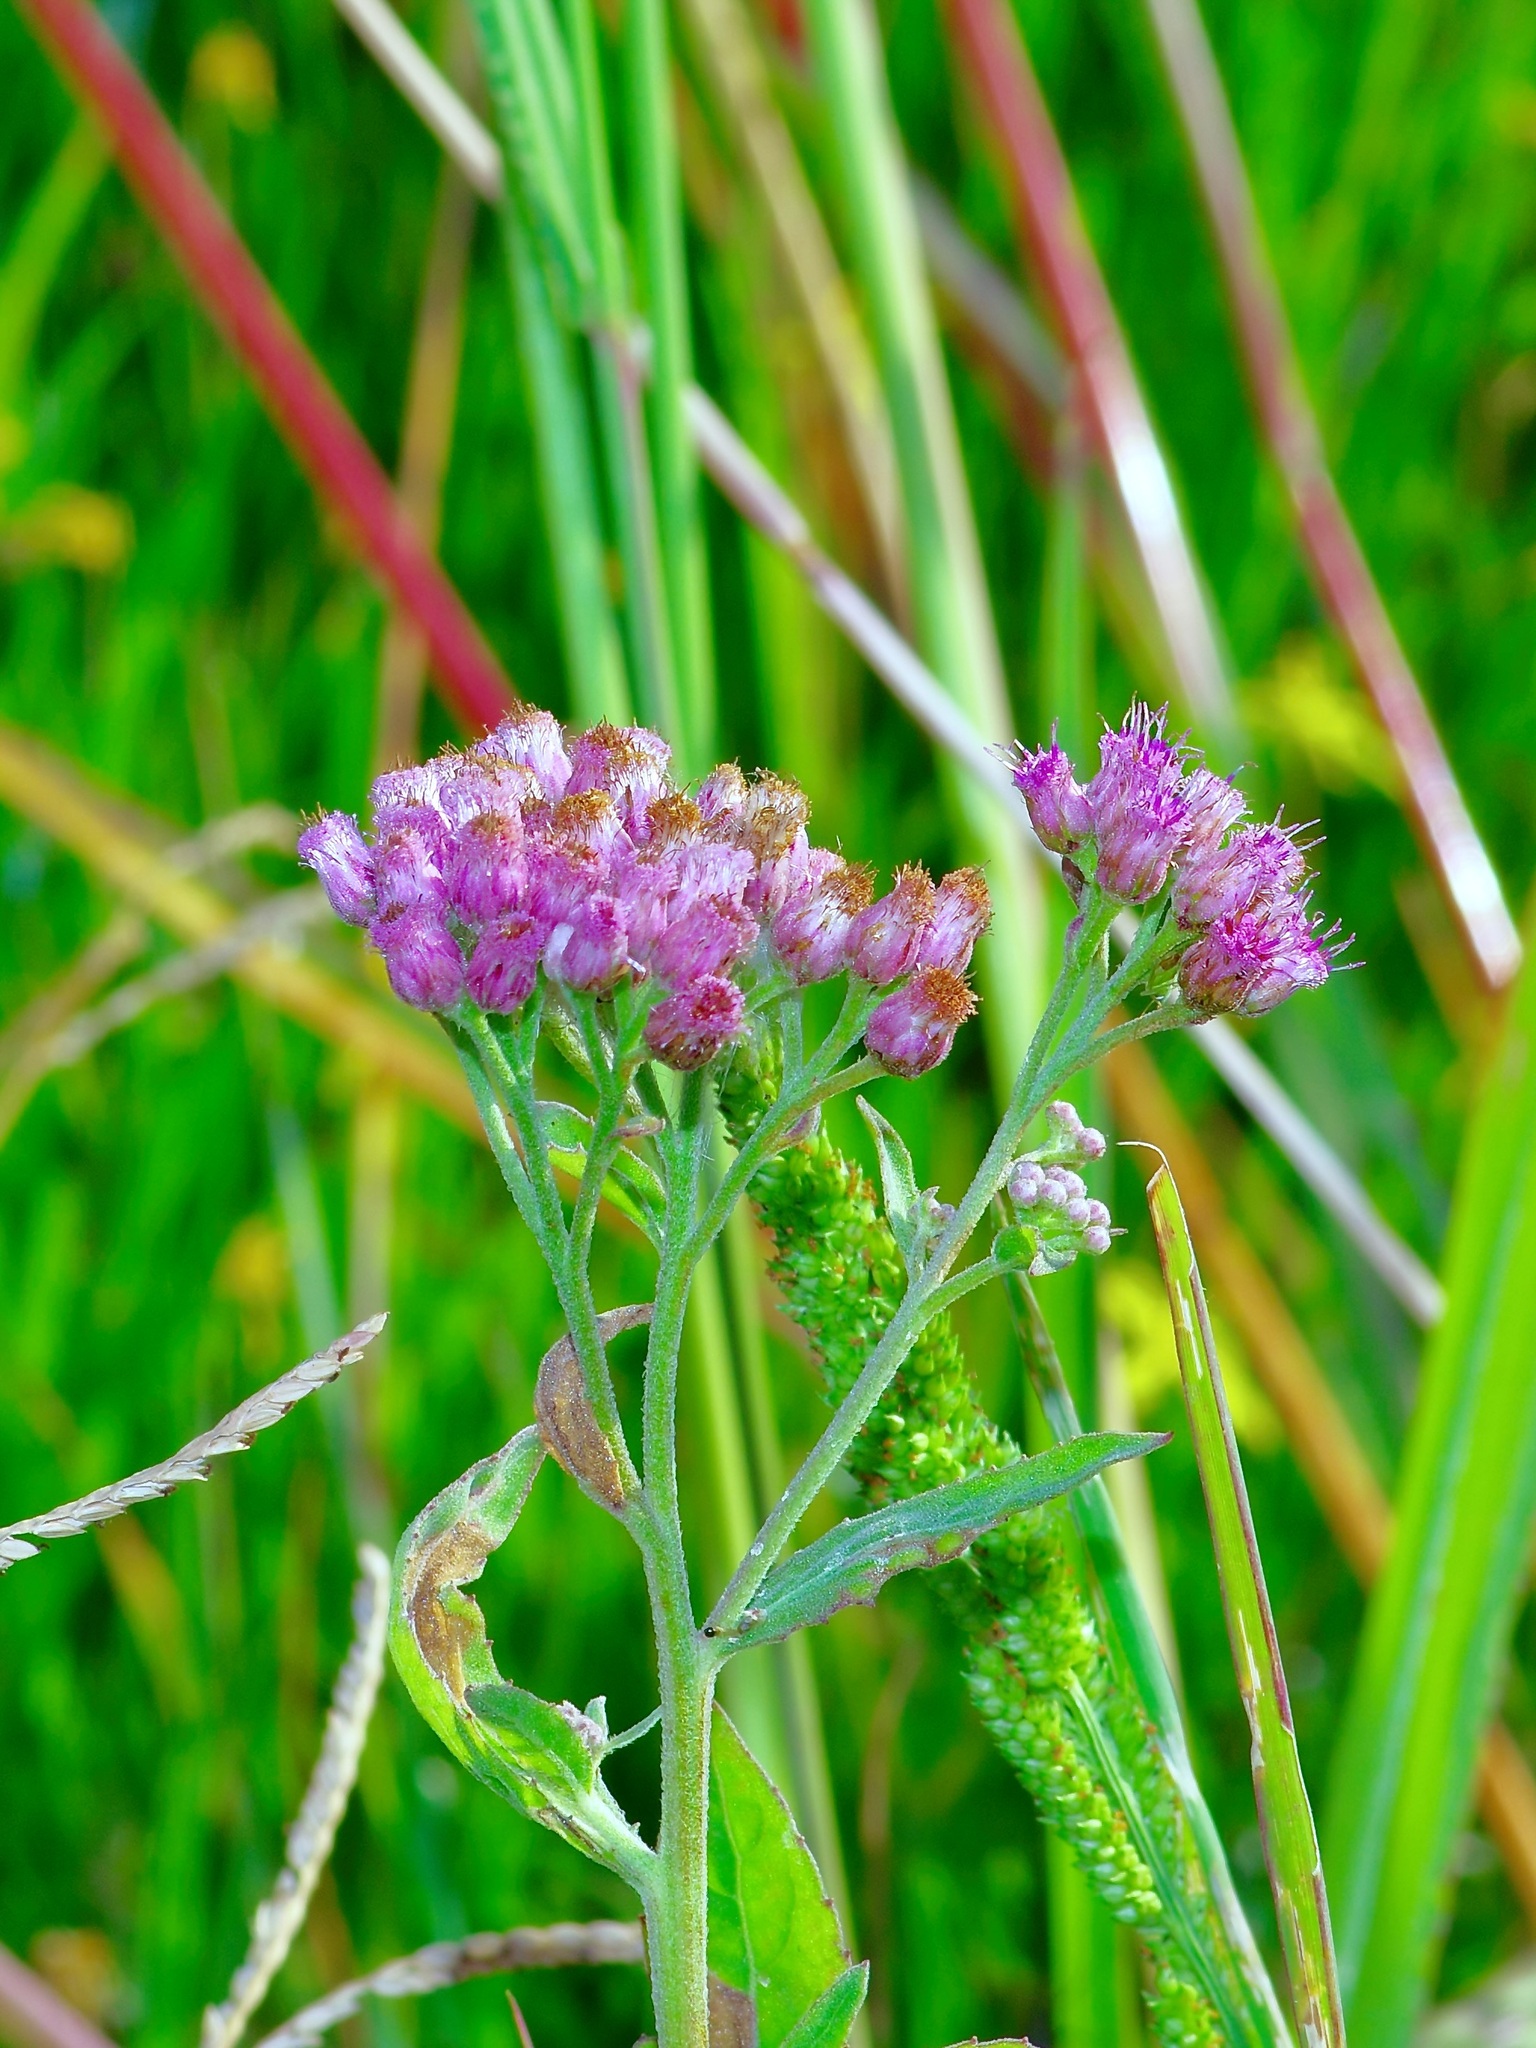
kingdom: Plantae
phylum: Tracheophyta
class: Magnoliopsida
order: Asterales
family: Asteraceae
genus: Pluchea
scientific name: Pluchea odorata
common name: Saltmarsh fleabane
